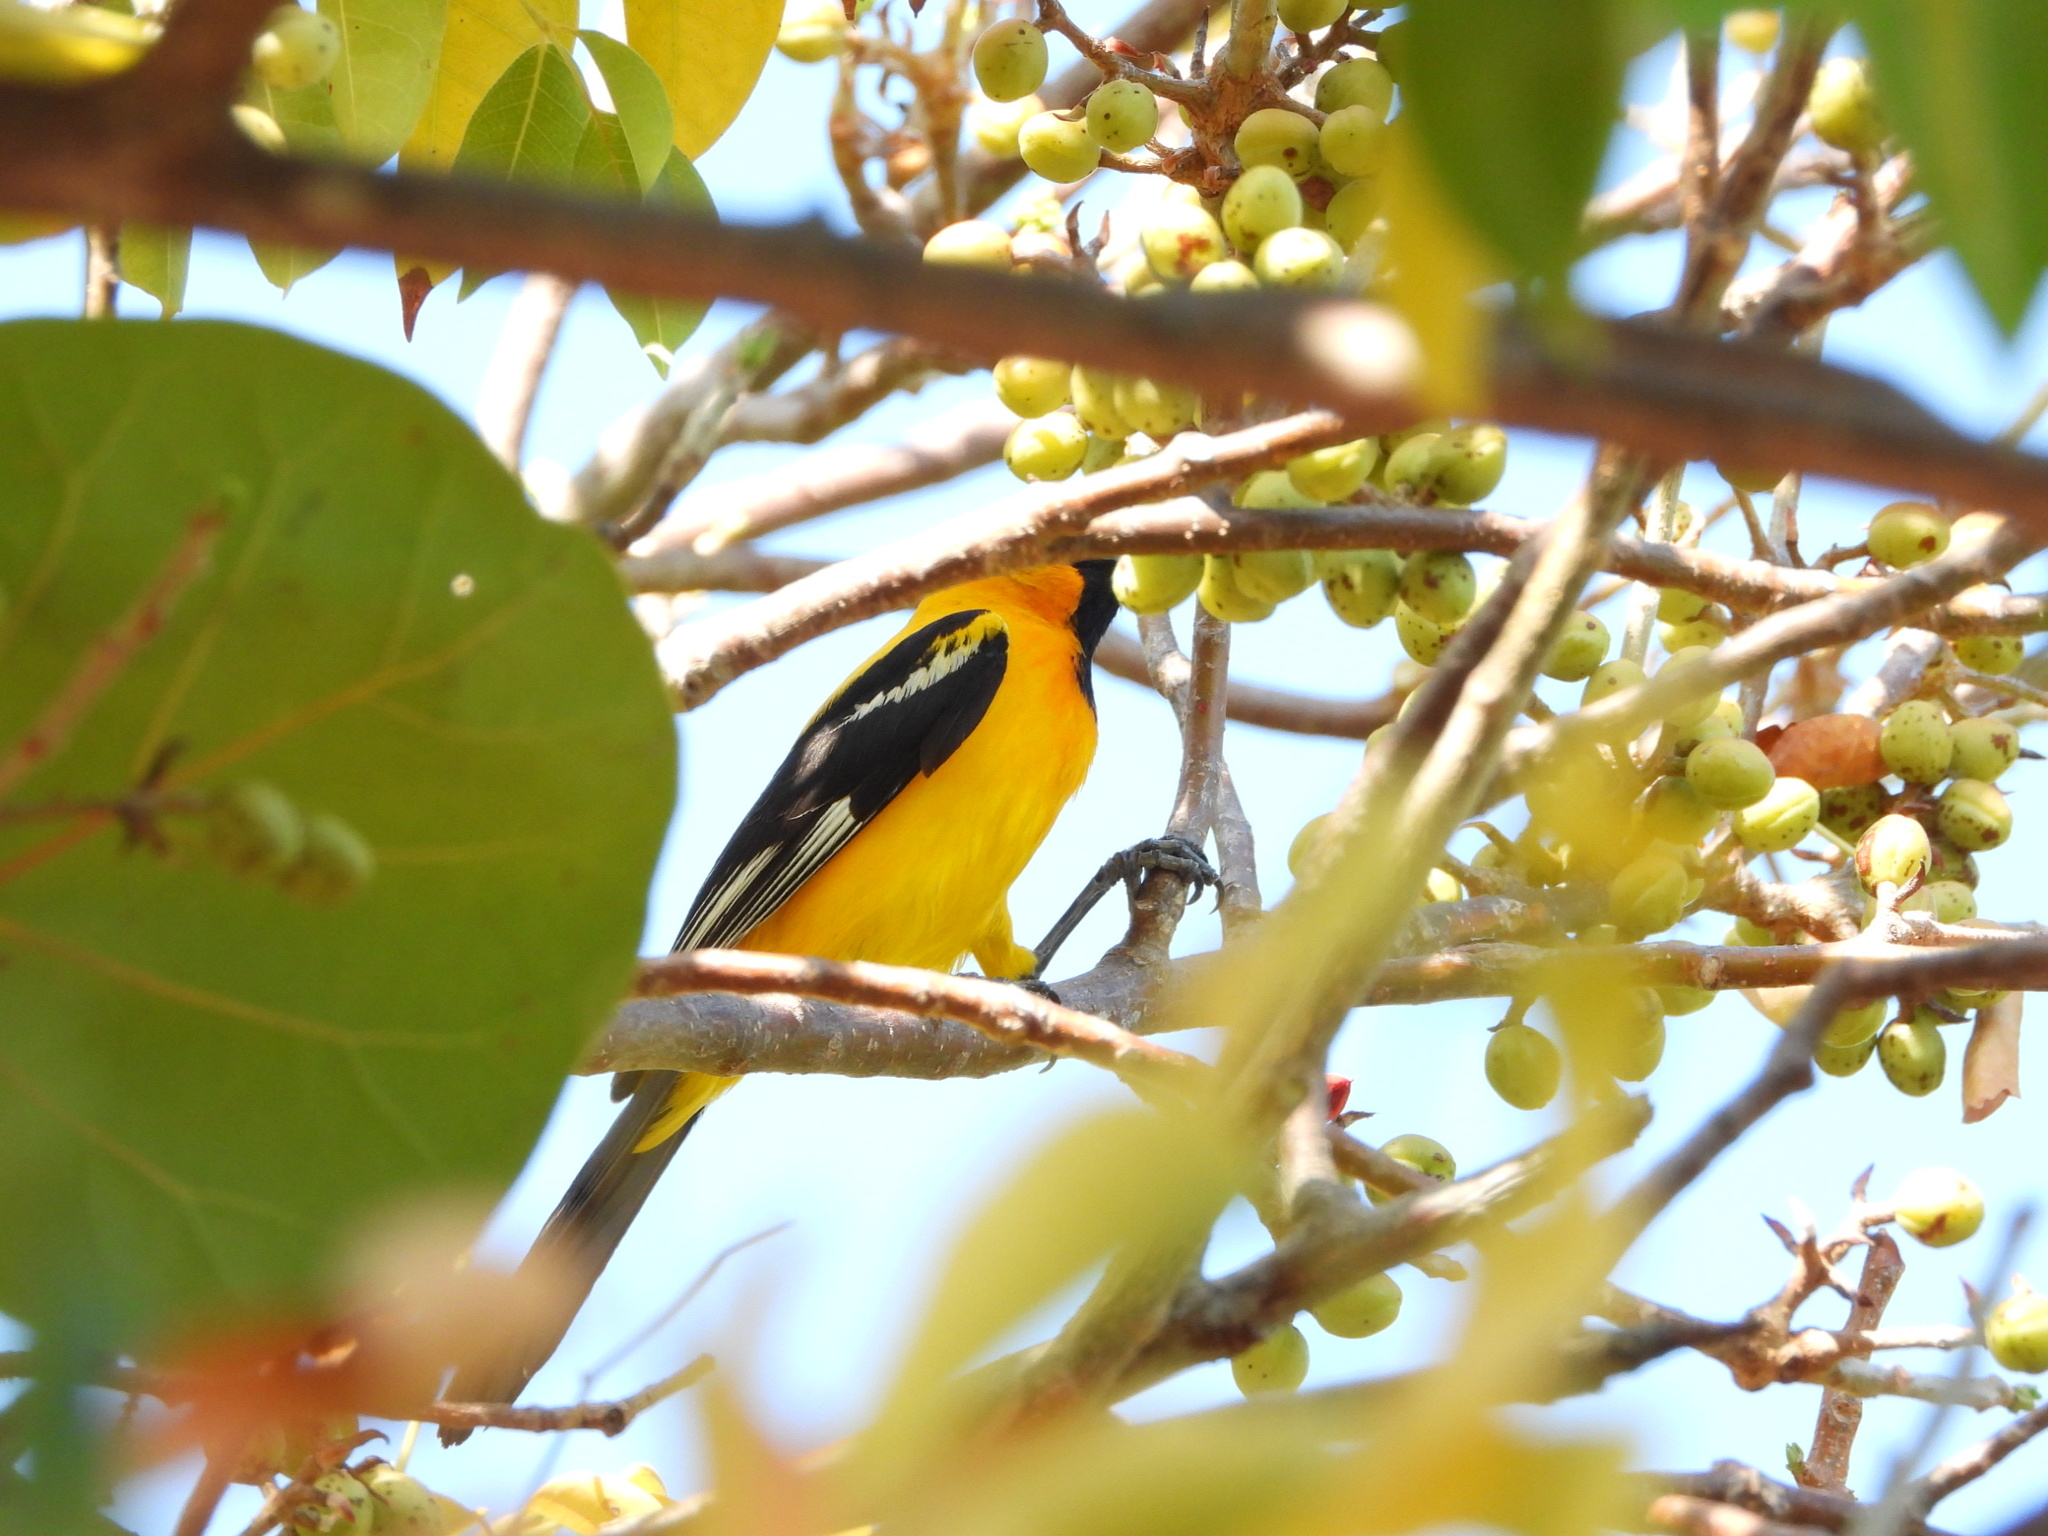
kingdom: Animalia
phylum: Chordata
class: Aves
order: Passeriformes
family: Icteridae
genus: Icterus
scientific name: Icterus auratus
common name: Orange oriole
